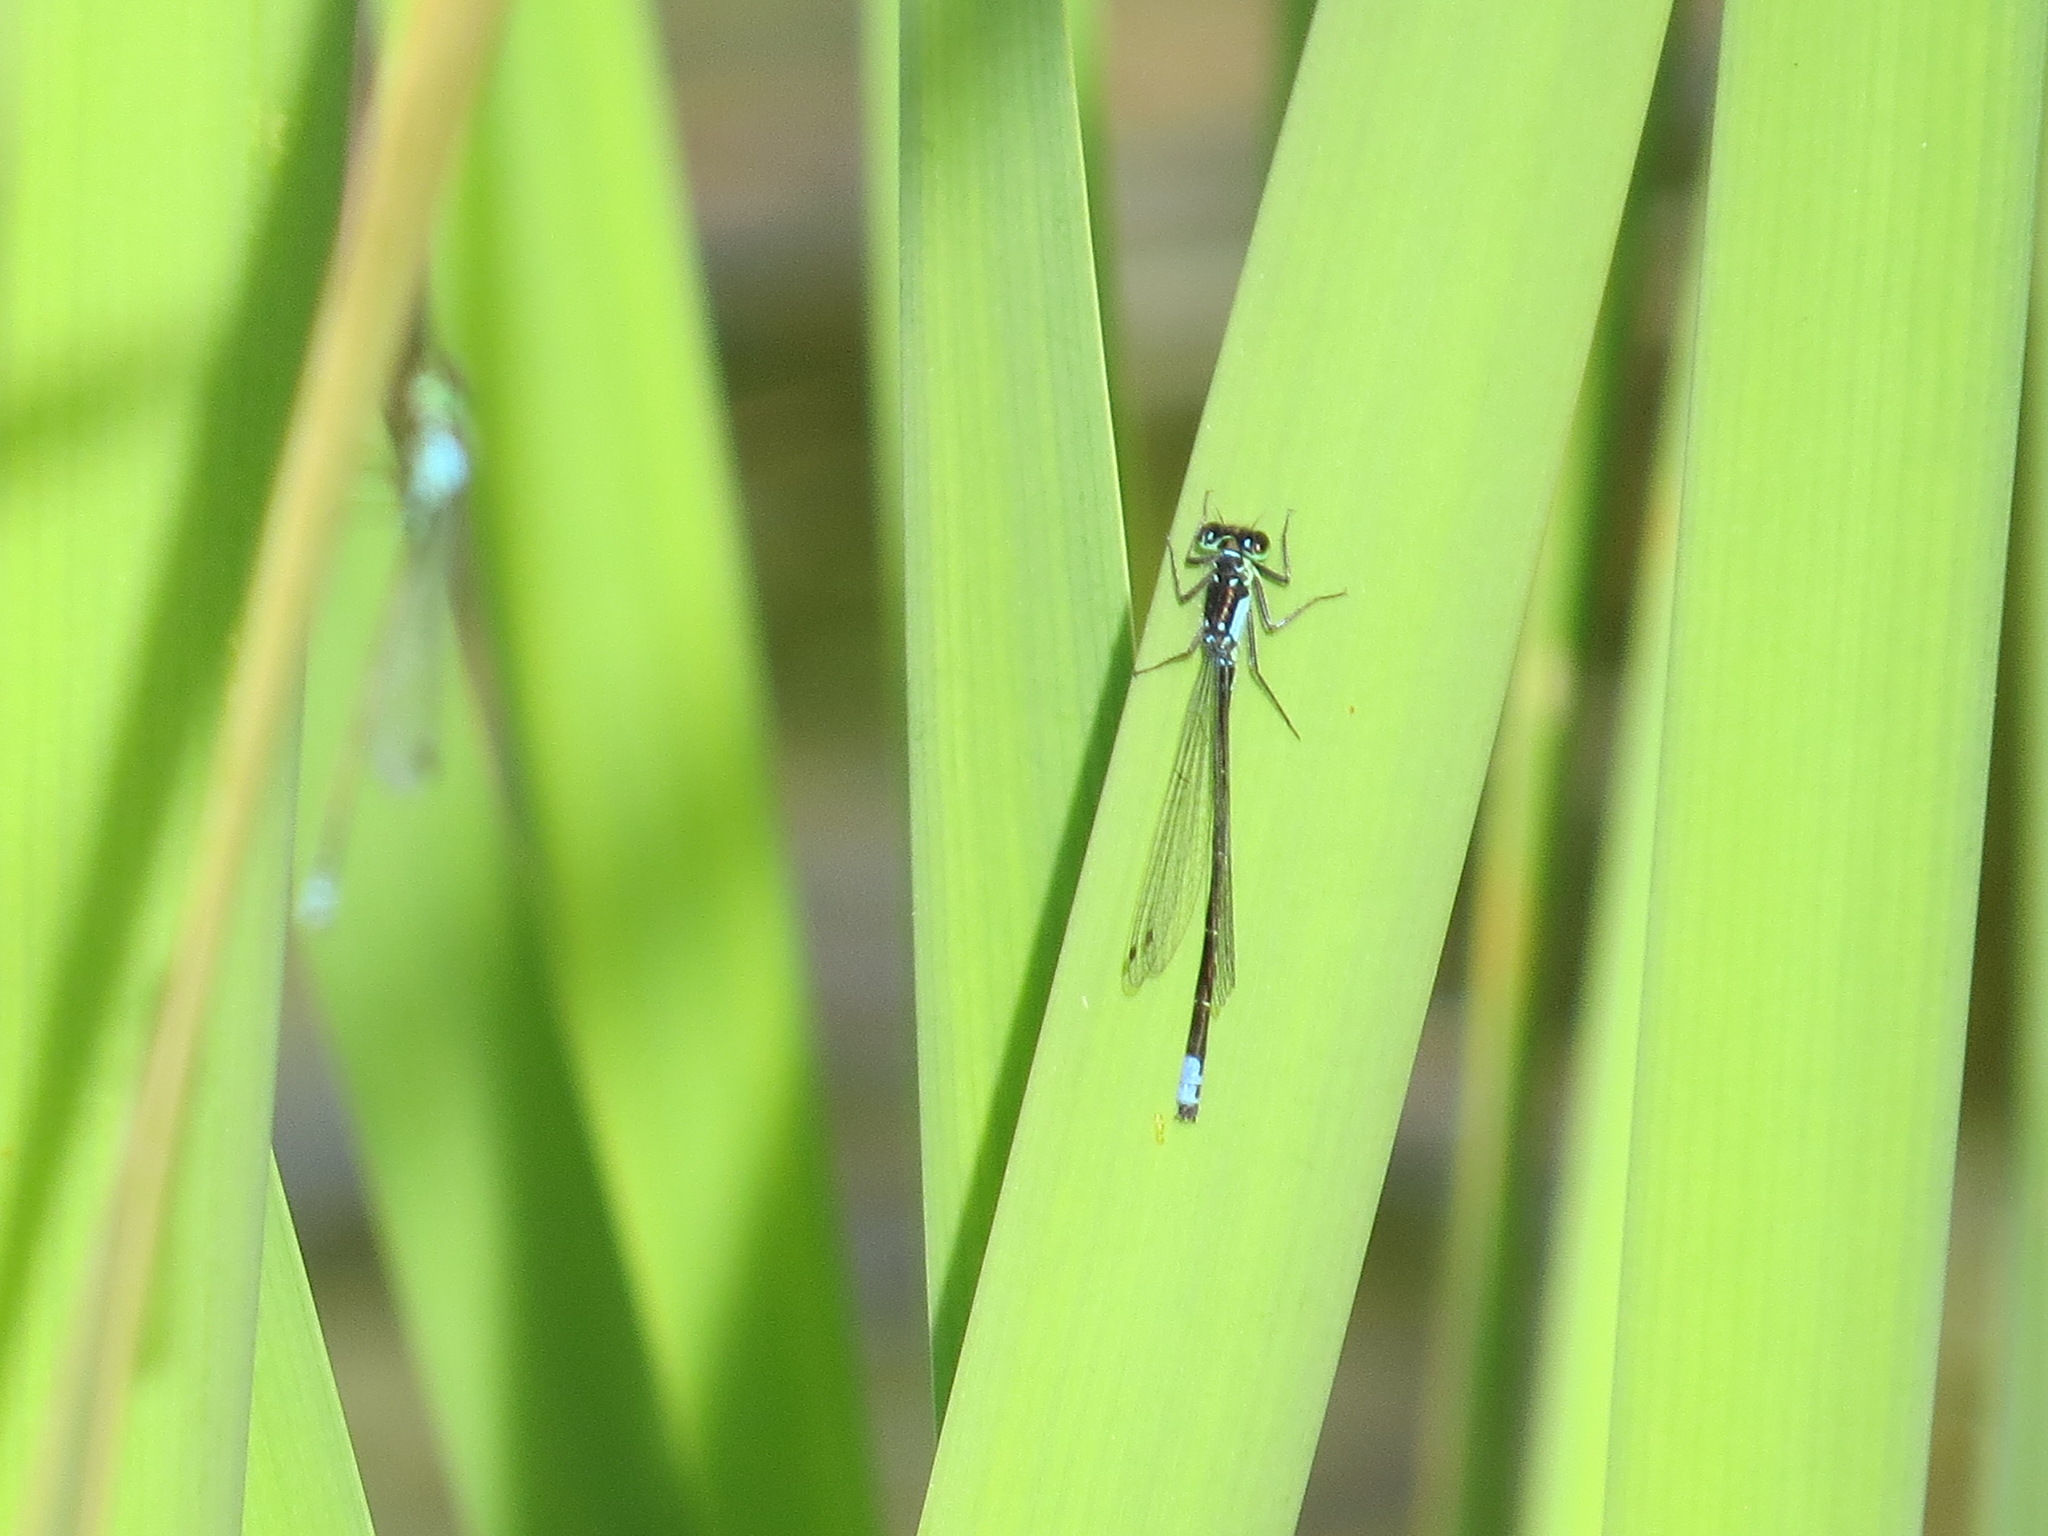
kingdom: Animalia
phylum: Arthropoda
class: Insecta
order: Odonata
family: Coenagrionidae
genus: Ischnura
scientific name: Ischnura cervula
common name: Pacific forktail
